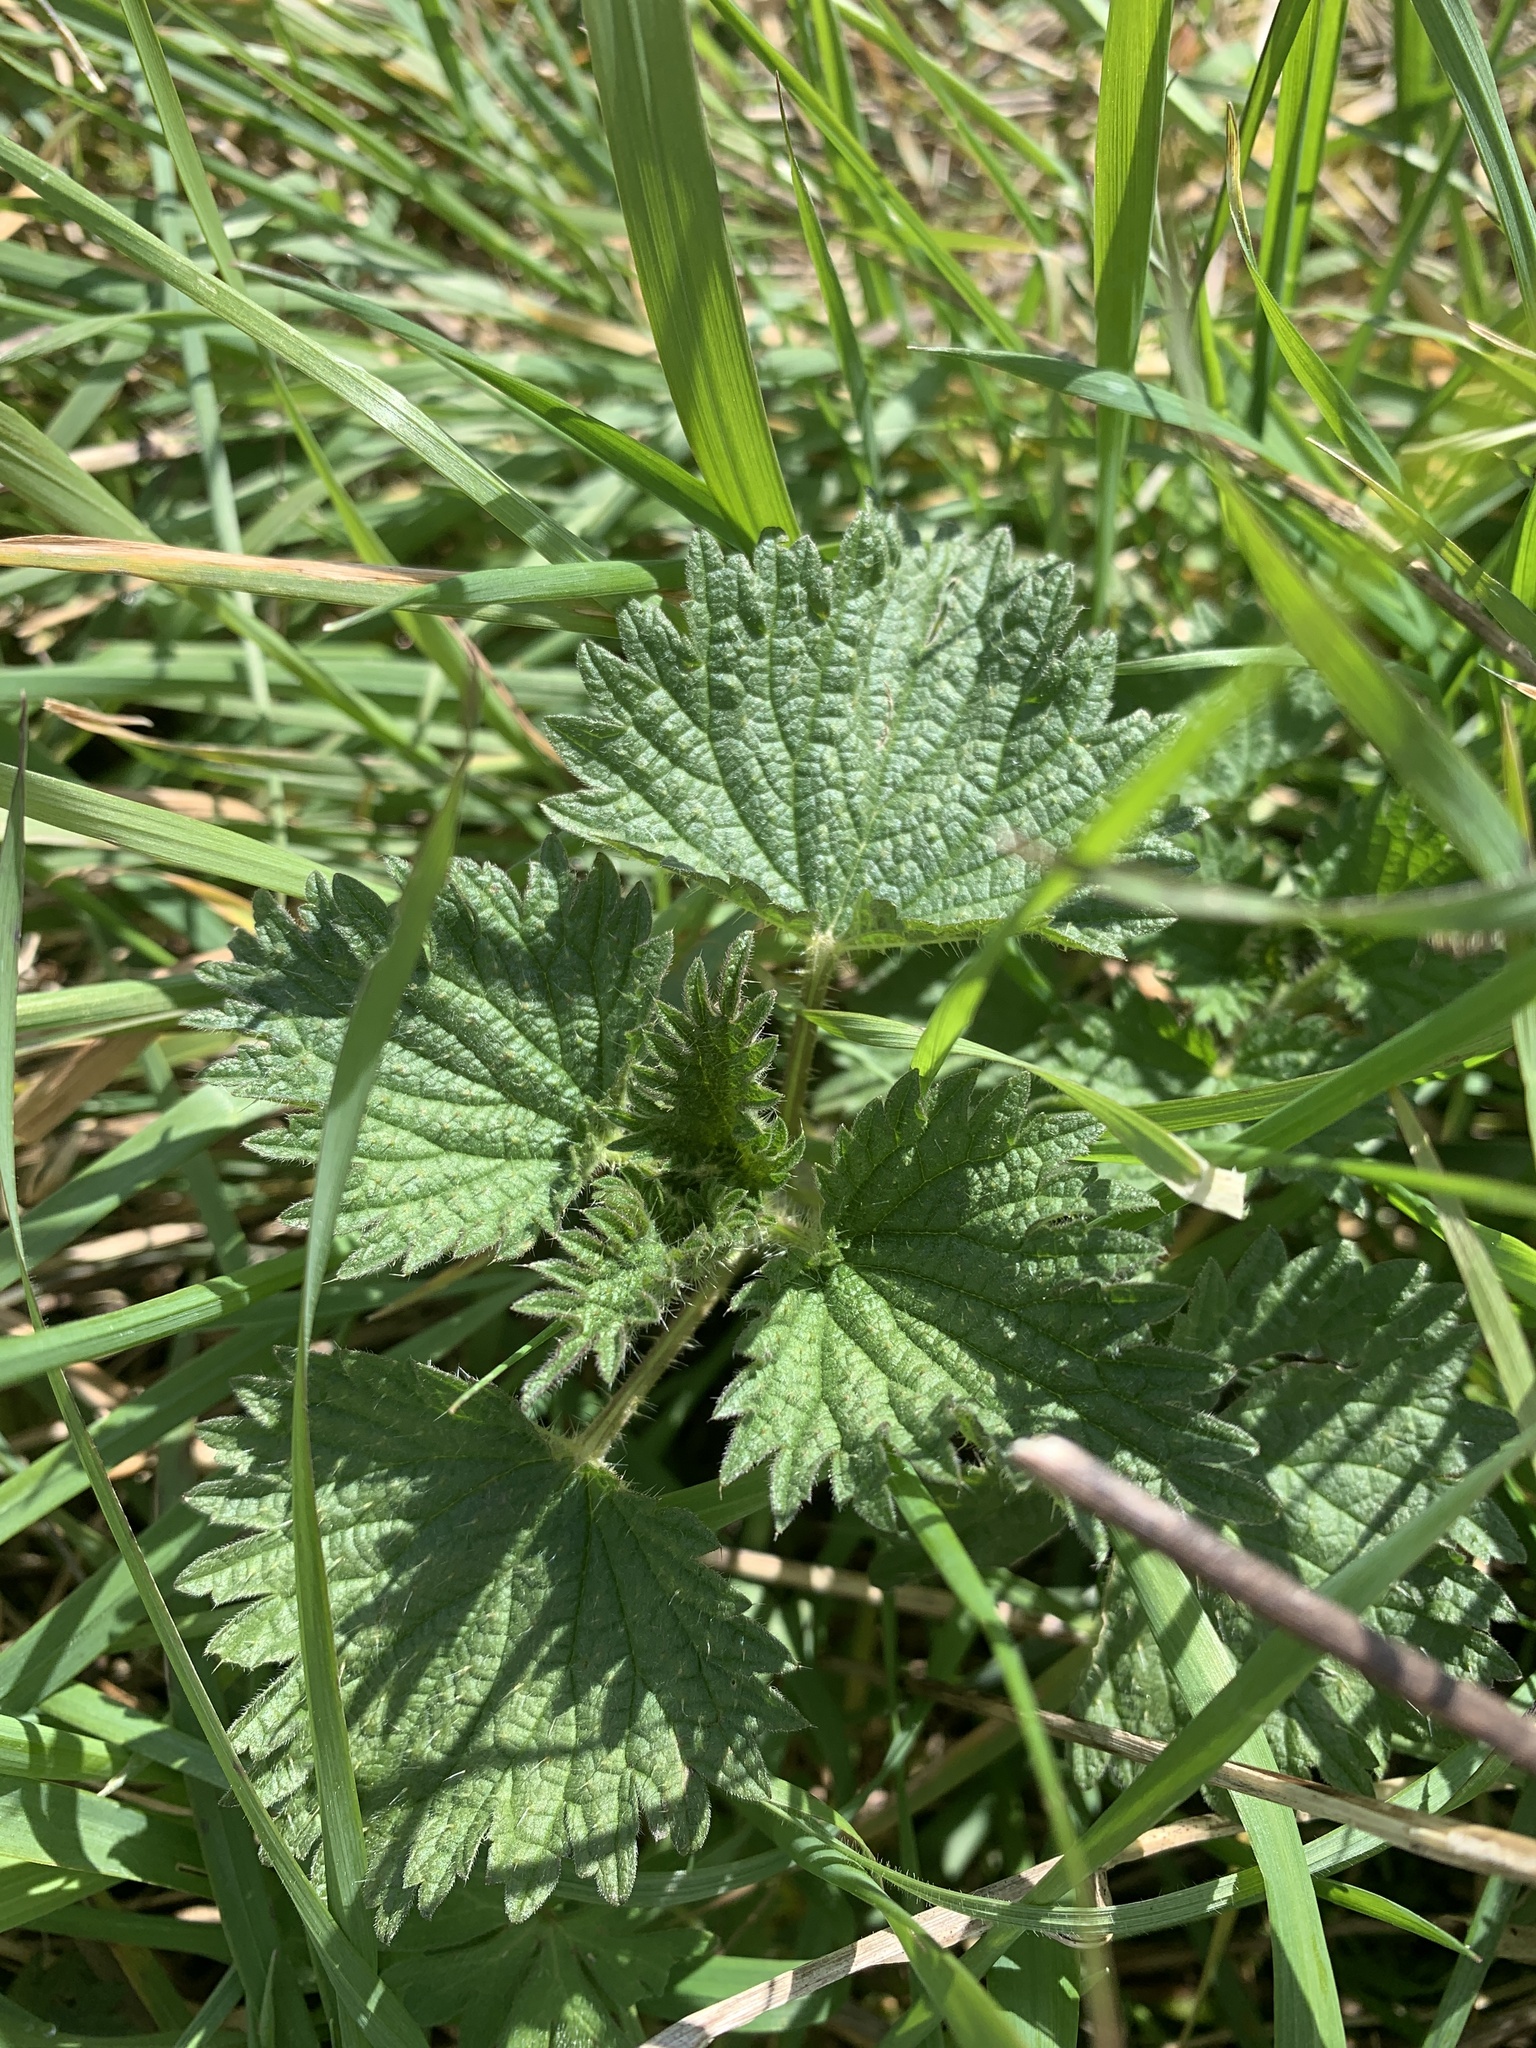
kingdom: Plantae
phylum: Tracheophyta
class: Magnoliopsida
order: Rosales
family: Urticaceae
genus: Urtica
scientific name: Urtica dioica
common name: Common nettle
